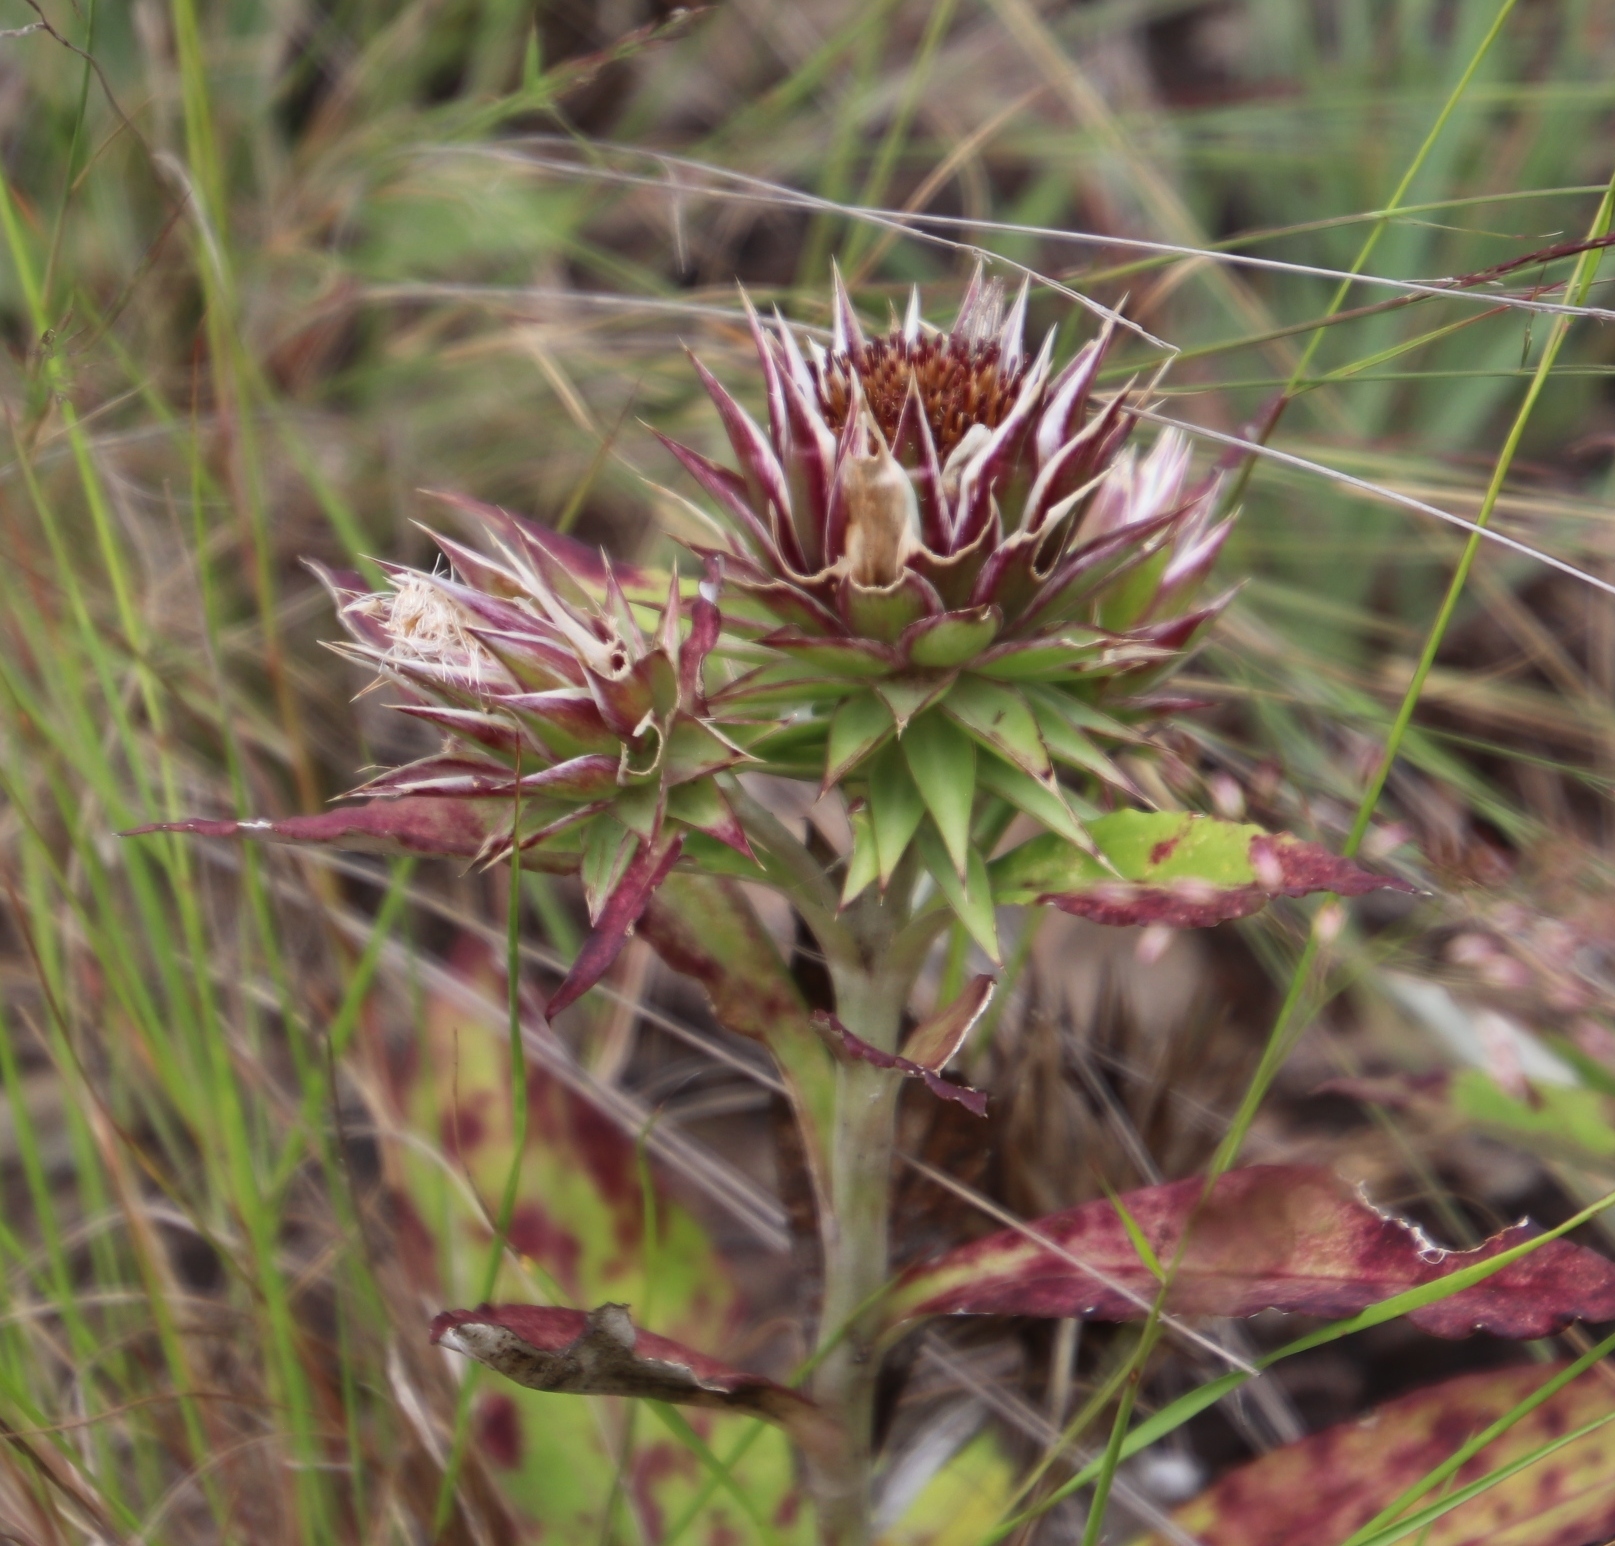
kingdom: Plantae
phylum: Tracheophyta
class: Magnoliopsida
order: Asterales
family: Asteraceae
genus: Macledium
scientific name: Macledium zeyheri
